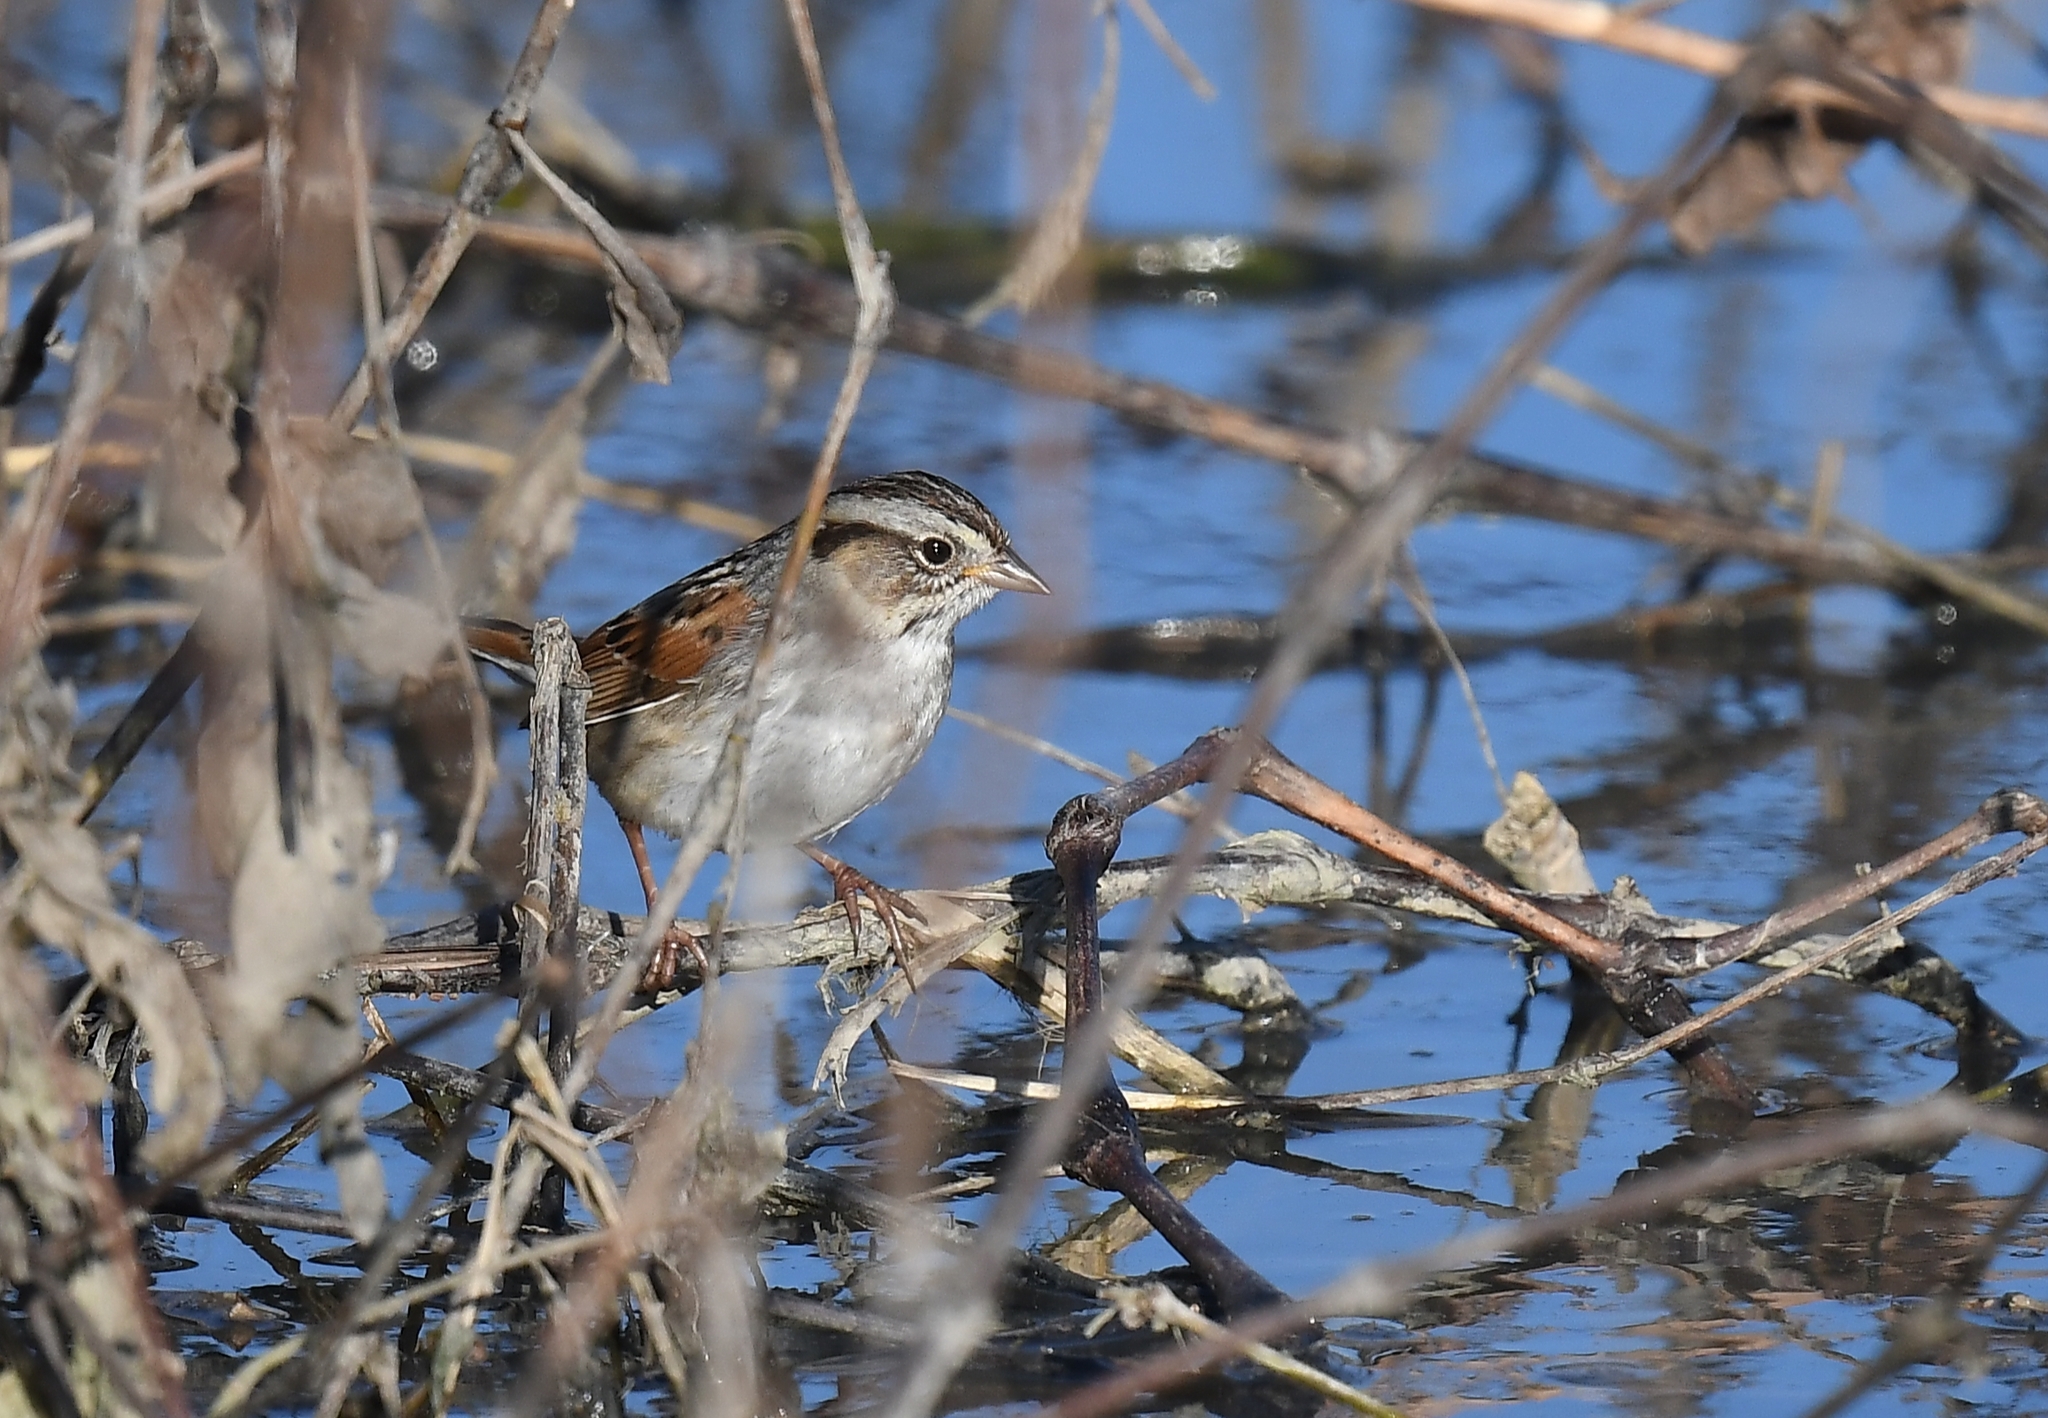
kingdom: Animalia
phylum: Chordata
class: Aves
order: Passeriformes
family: Passerellidae
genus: Melospiza
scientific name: Melospiza georgiana
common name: Swamp sparrow
